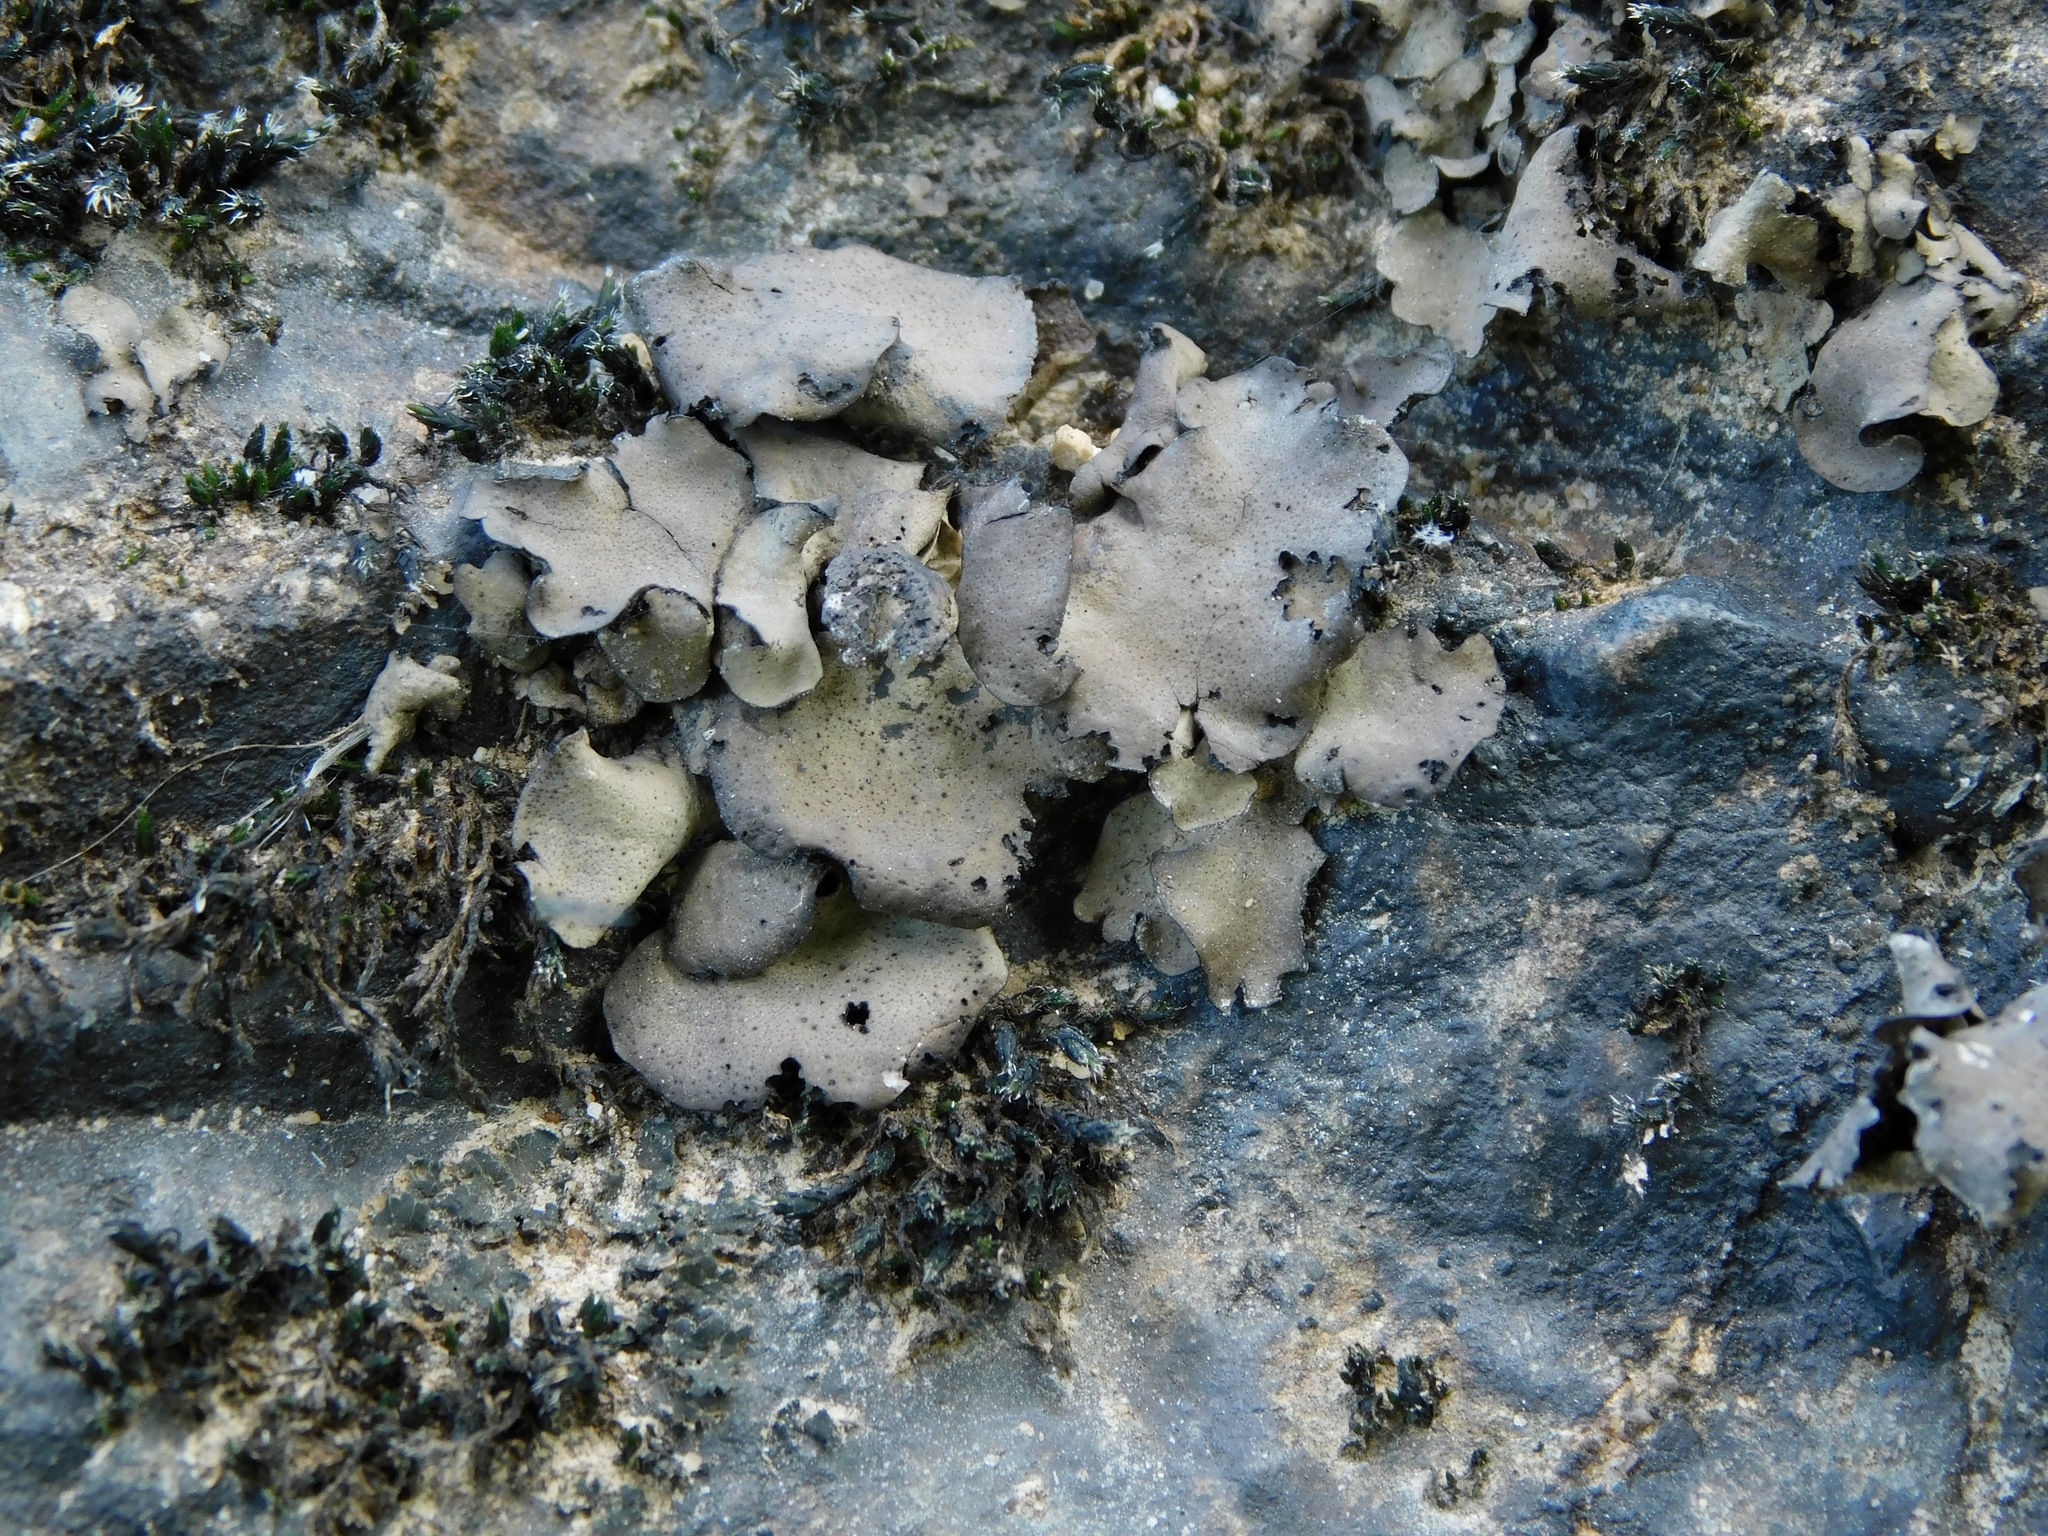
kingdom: Fungi
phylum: Ascomycota
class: Eurotiomycetes
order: Verrucariales
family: Verrucariaceae
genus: Dermatocarpon
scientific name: Dermatocarpon arenosaxi
